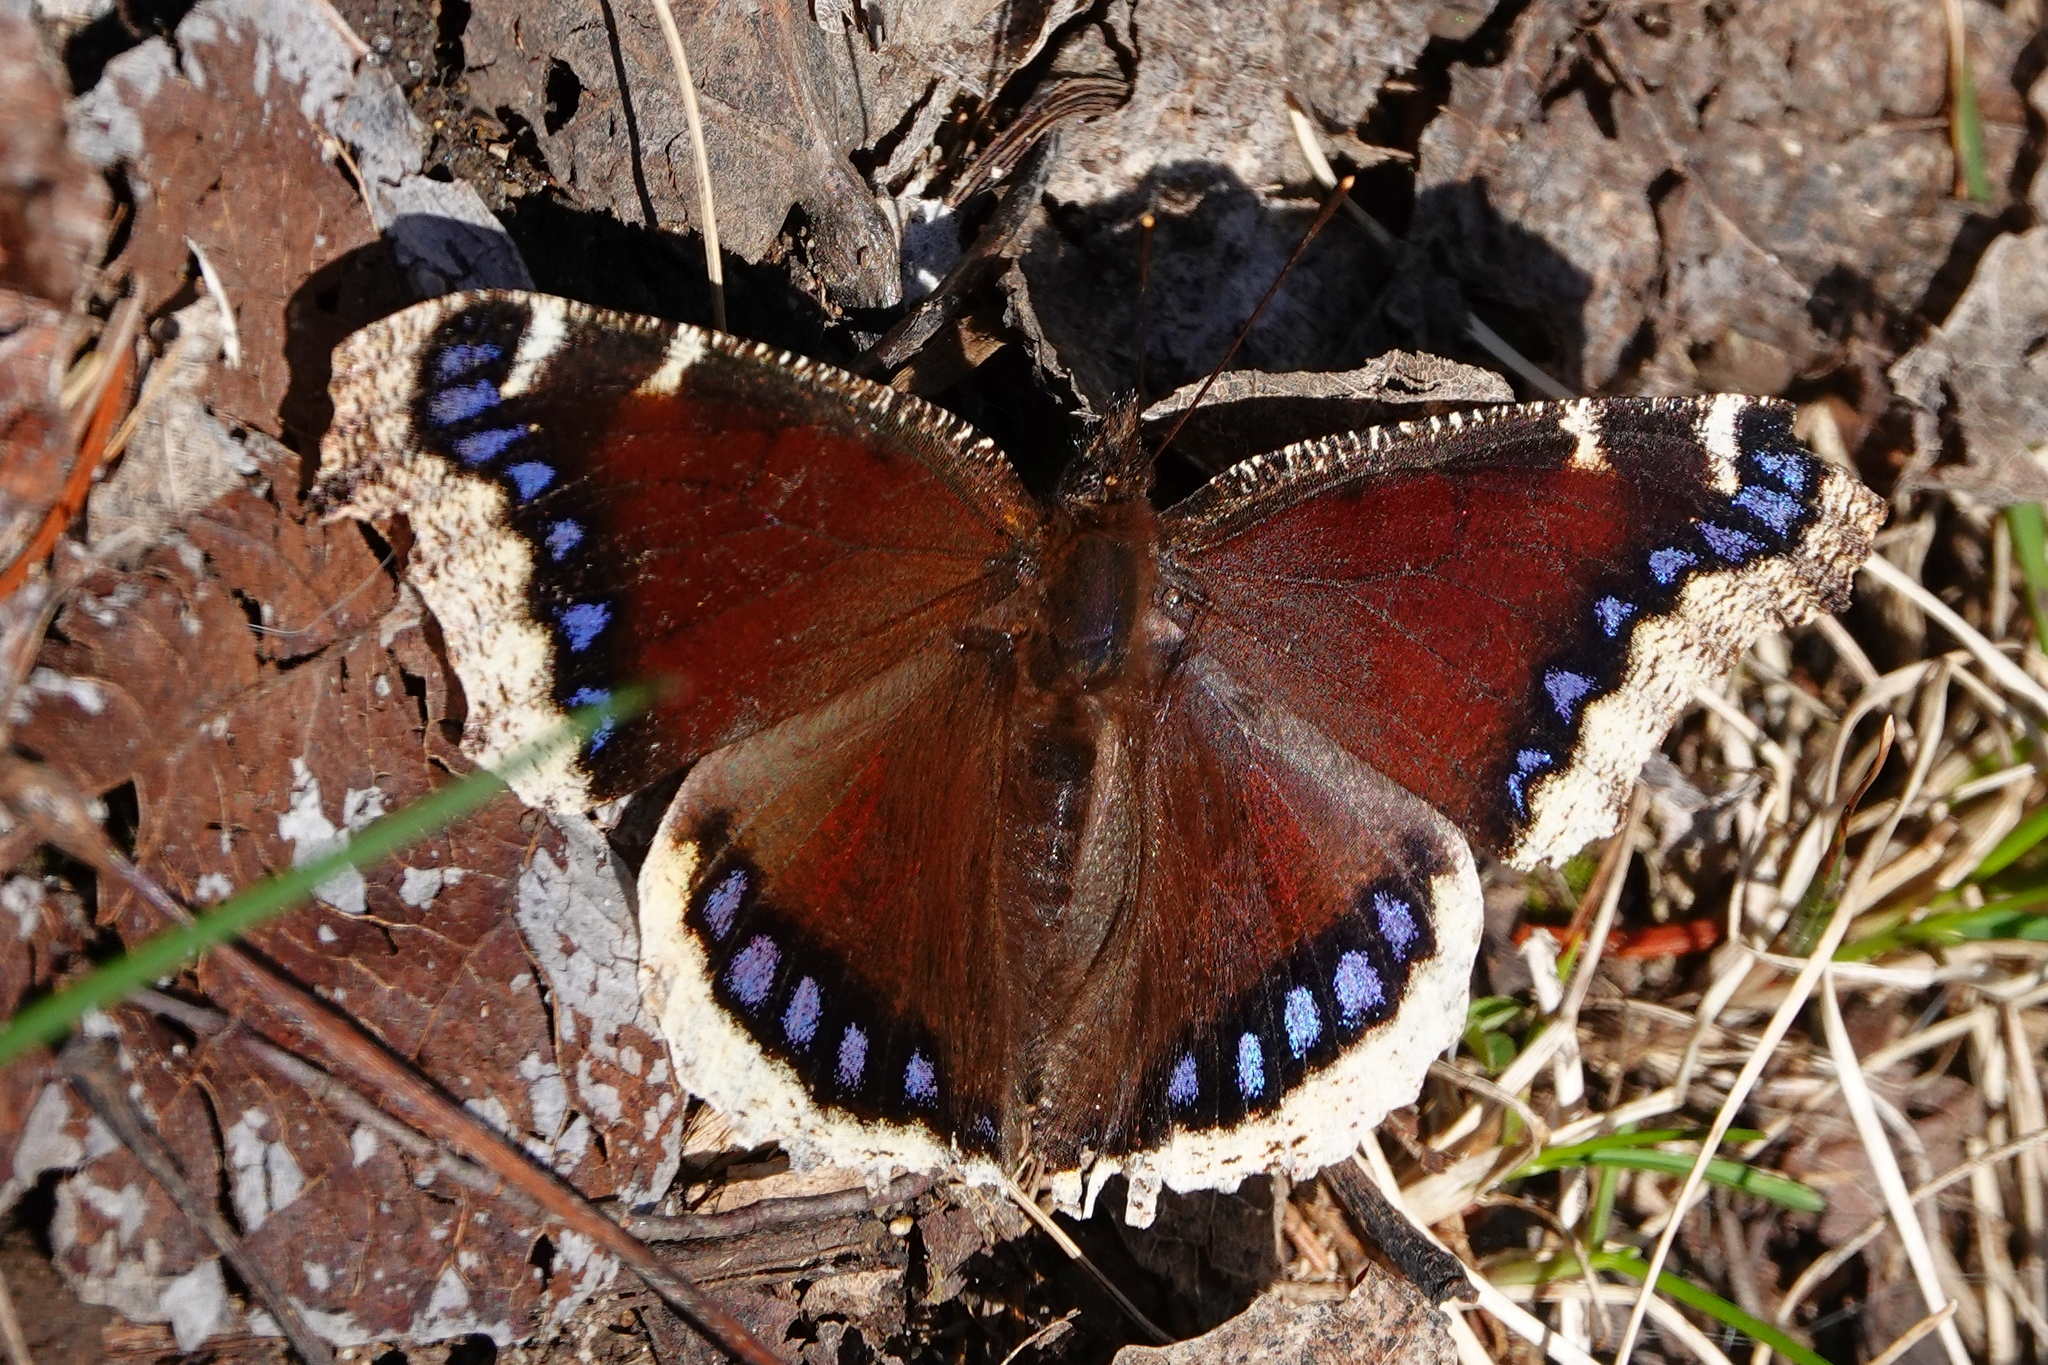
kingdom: Animalia
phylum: Arthropoda
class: Insecta
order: Lepidoptera
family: Nymphalidae
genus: Nymphalis
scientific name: Nymphalis antiopa
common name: Camberwell beauty
